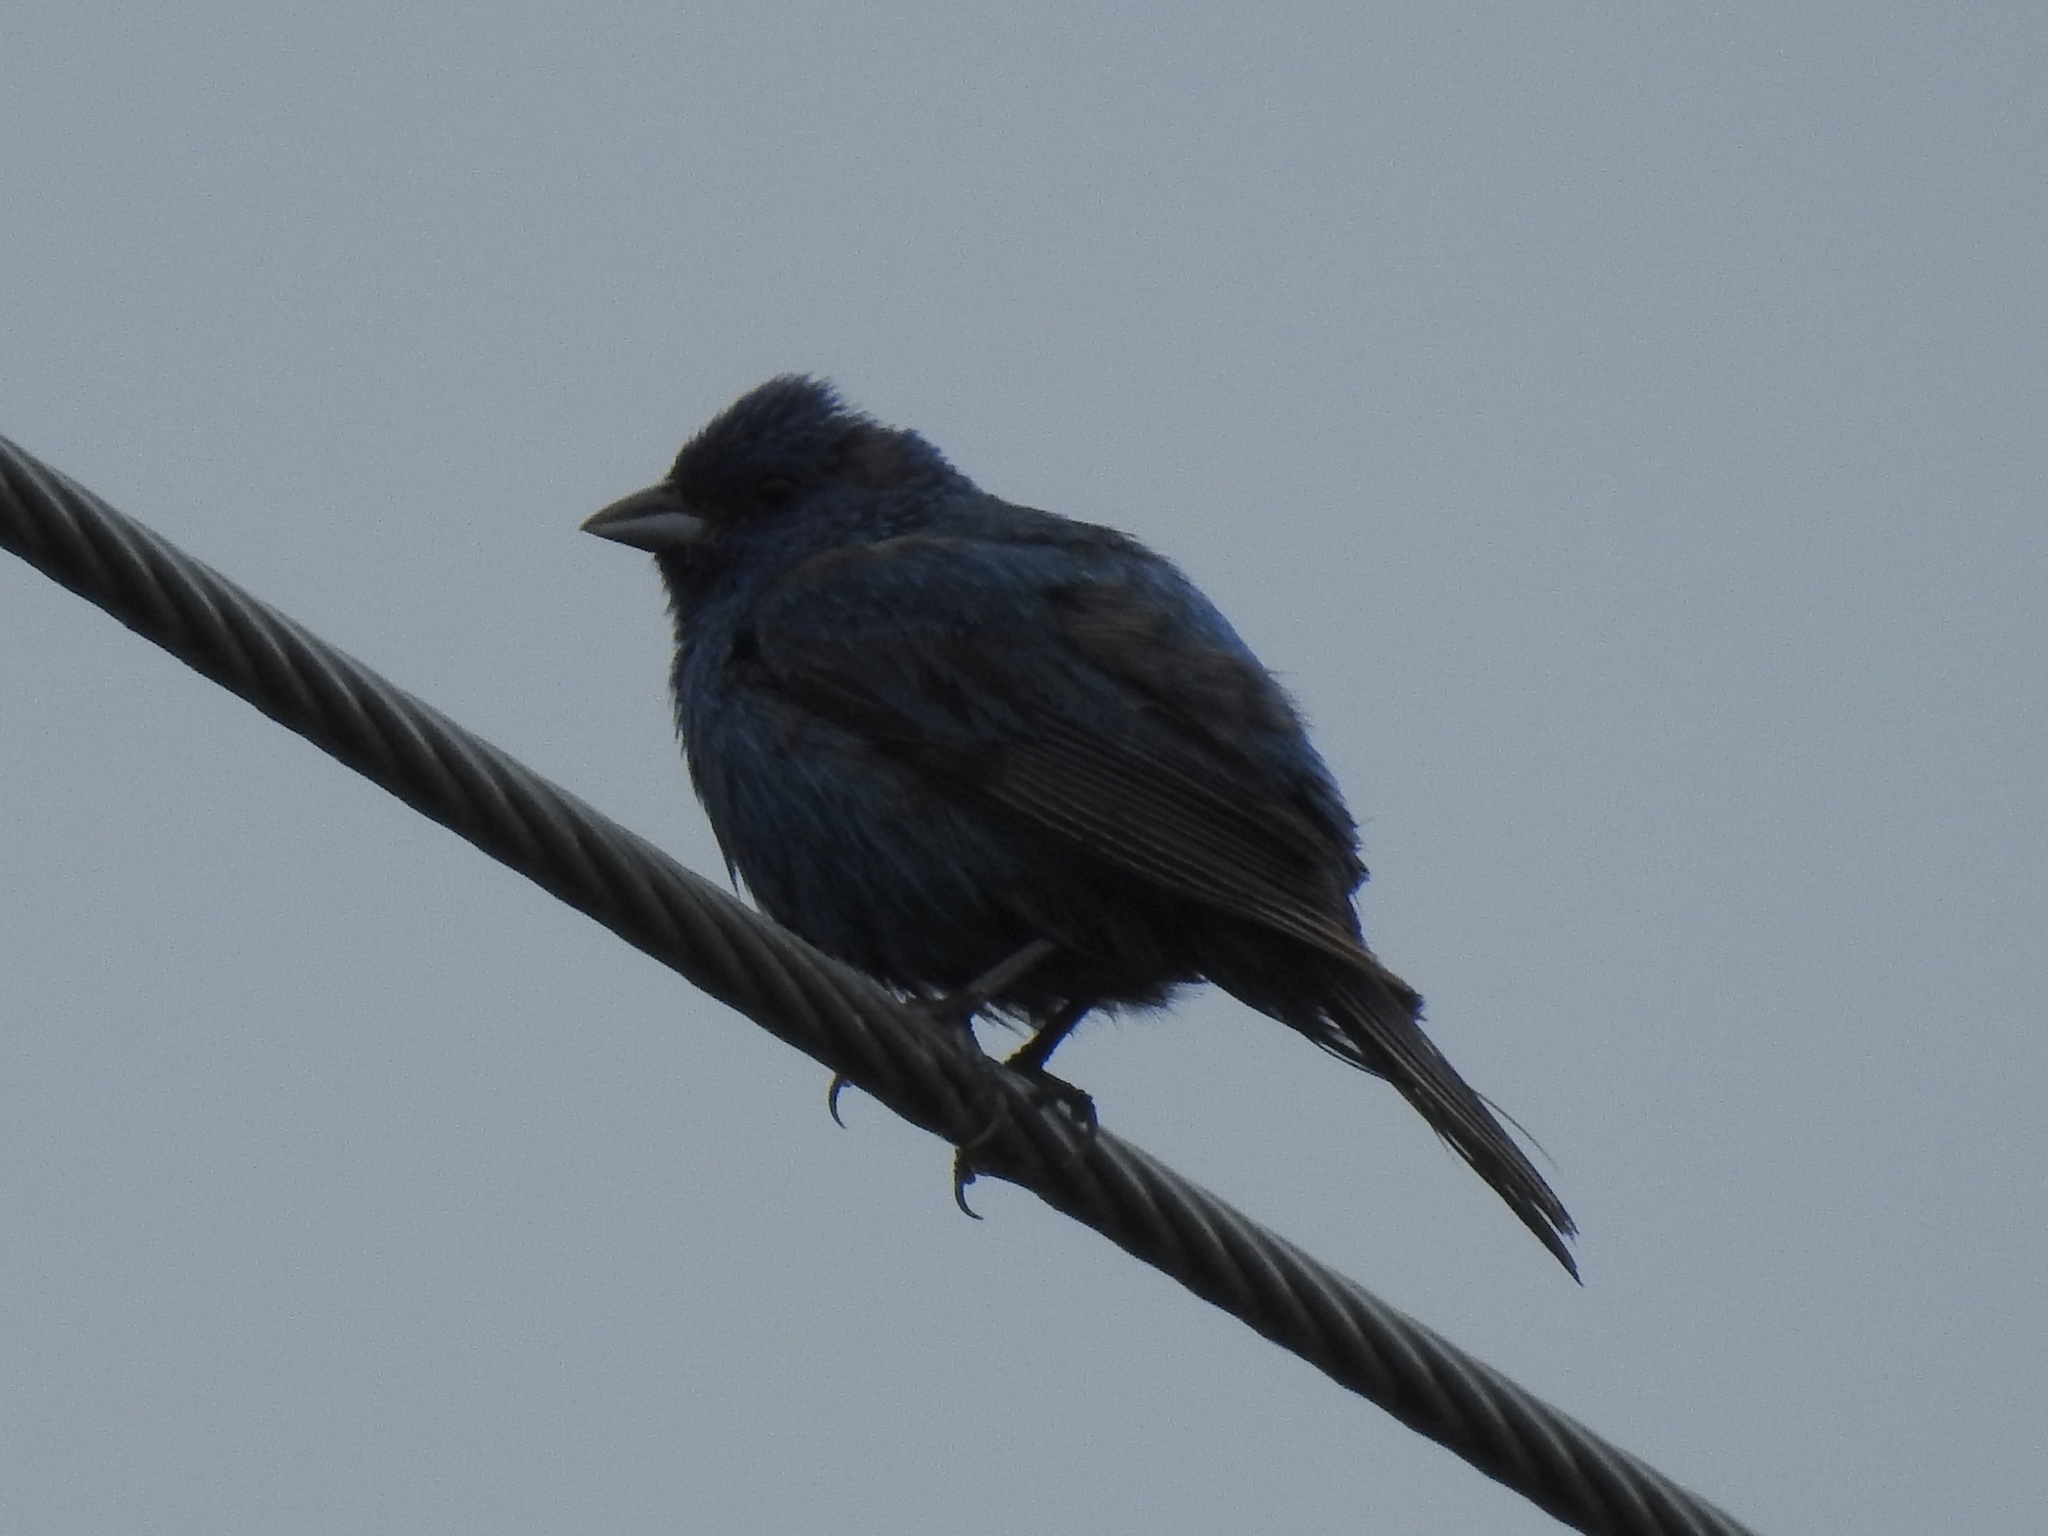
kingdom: Animalia
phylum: Chordata
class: Aves
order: Passeriformes
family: Cardinalidae
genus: Passerina
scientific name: Passerina cyanea
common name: Indigo bunting
